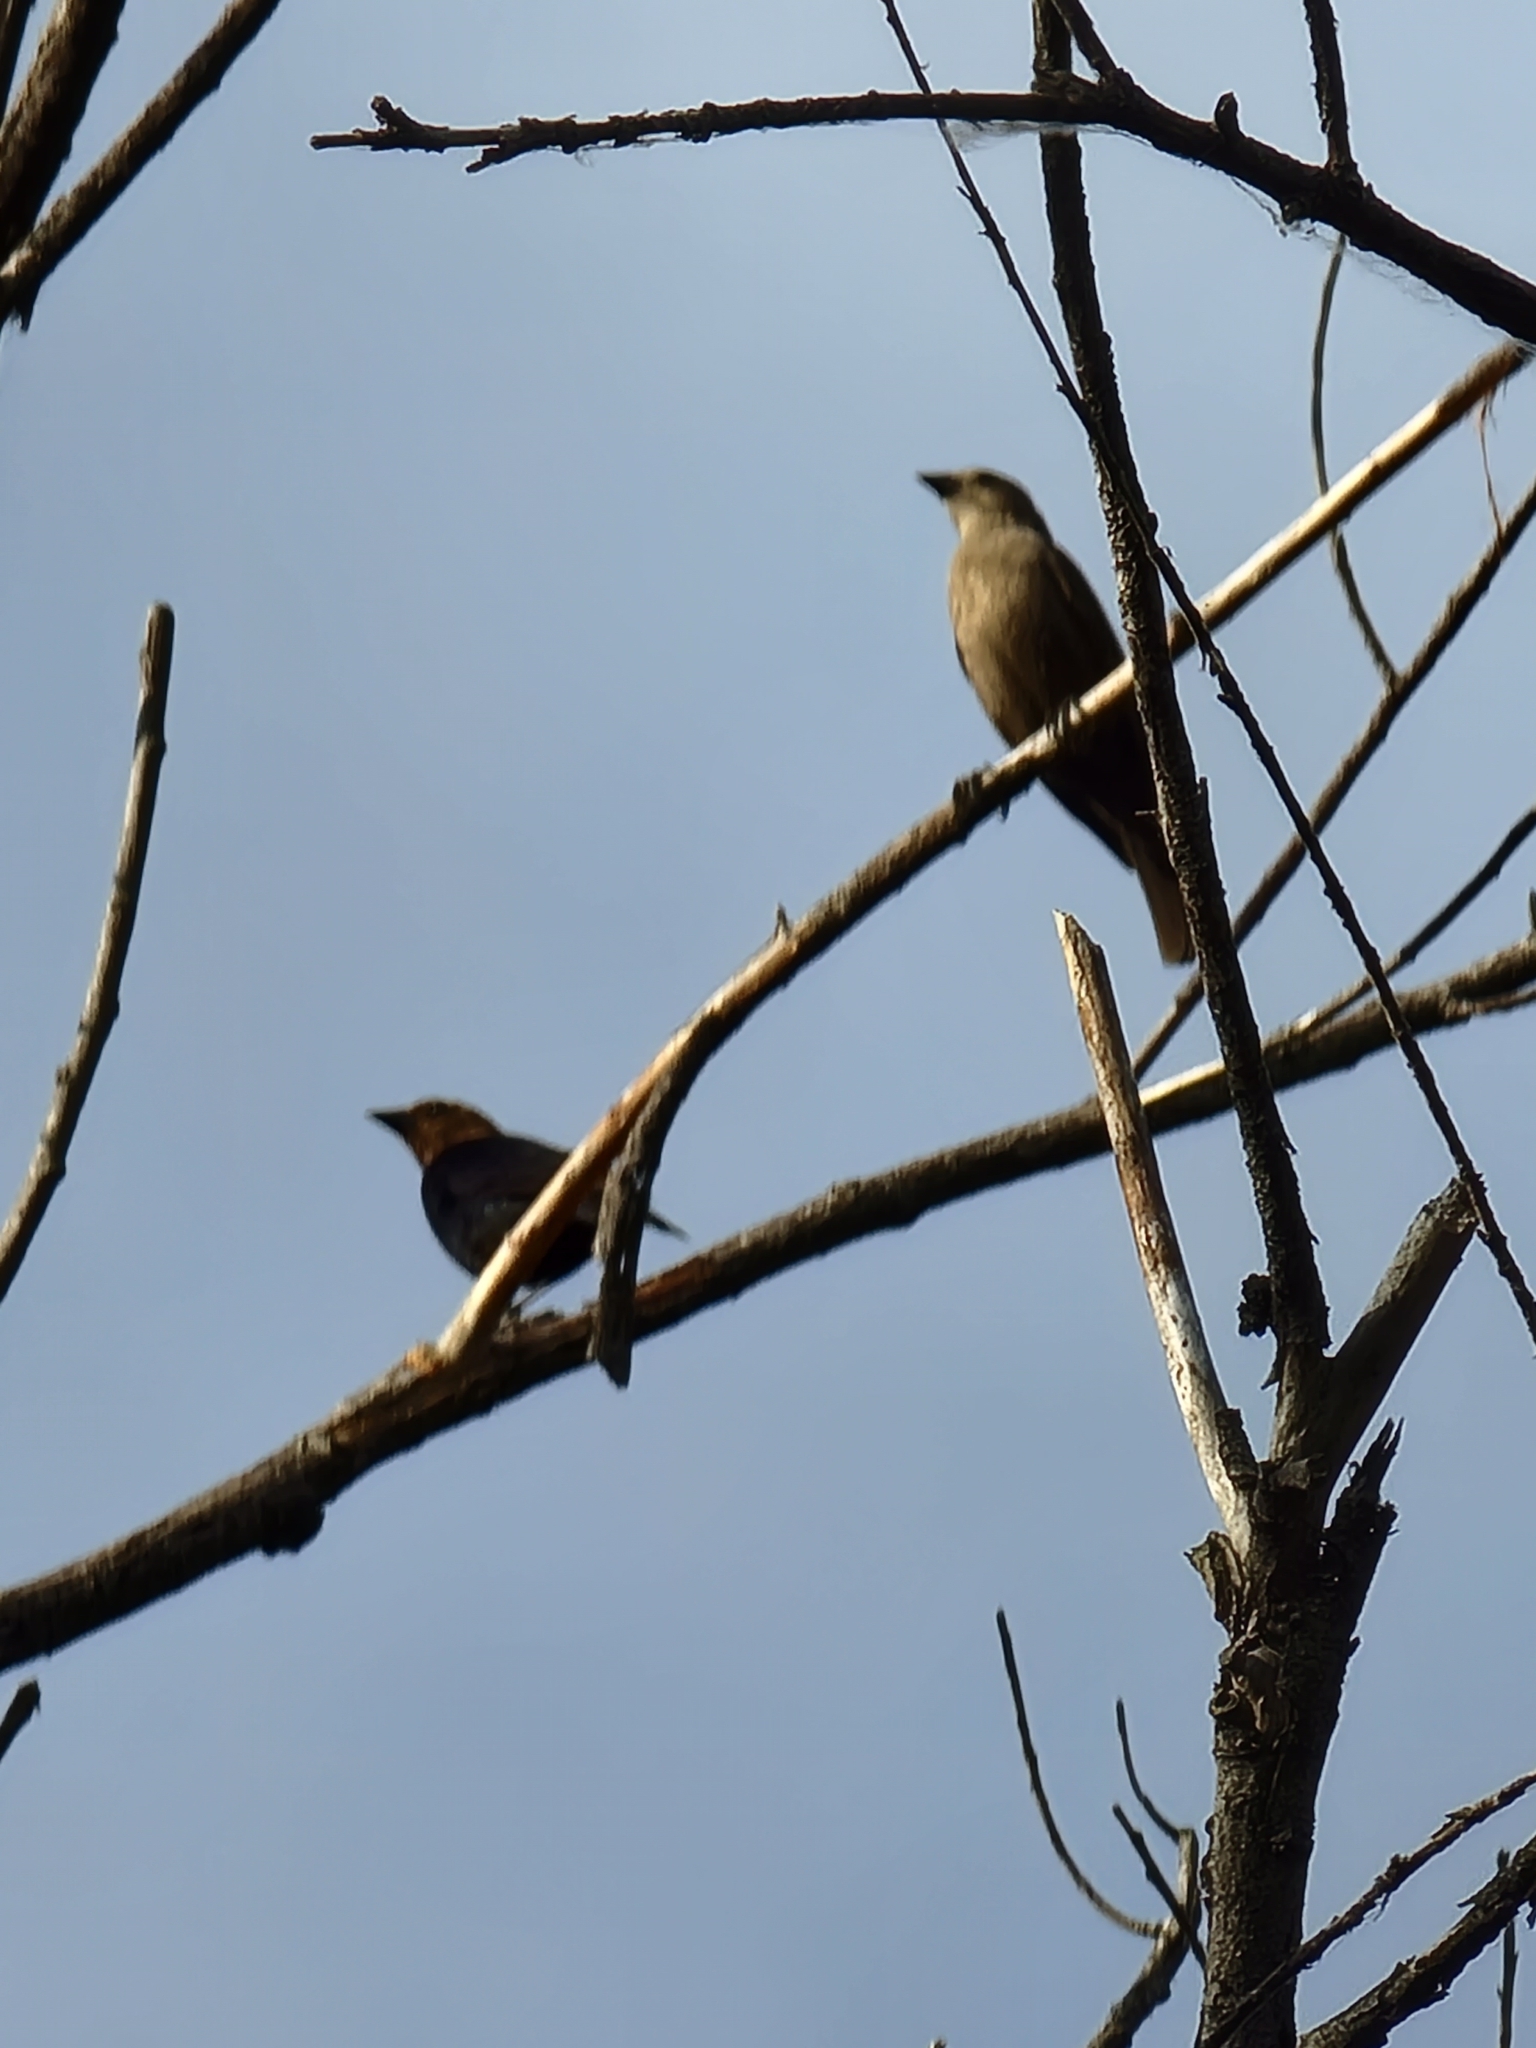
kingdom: Animalia
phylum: Chordata
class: Aves
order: Passeriformes
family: Icteridae
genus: Molothrus
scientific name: Molothrus ater
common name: Brown-headed cowbird
